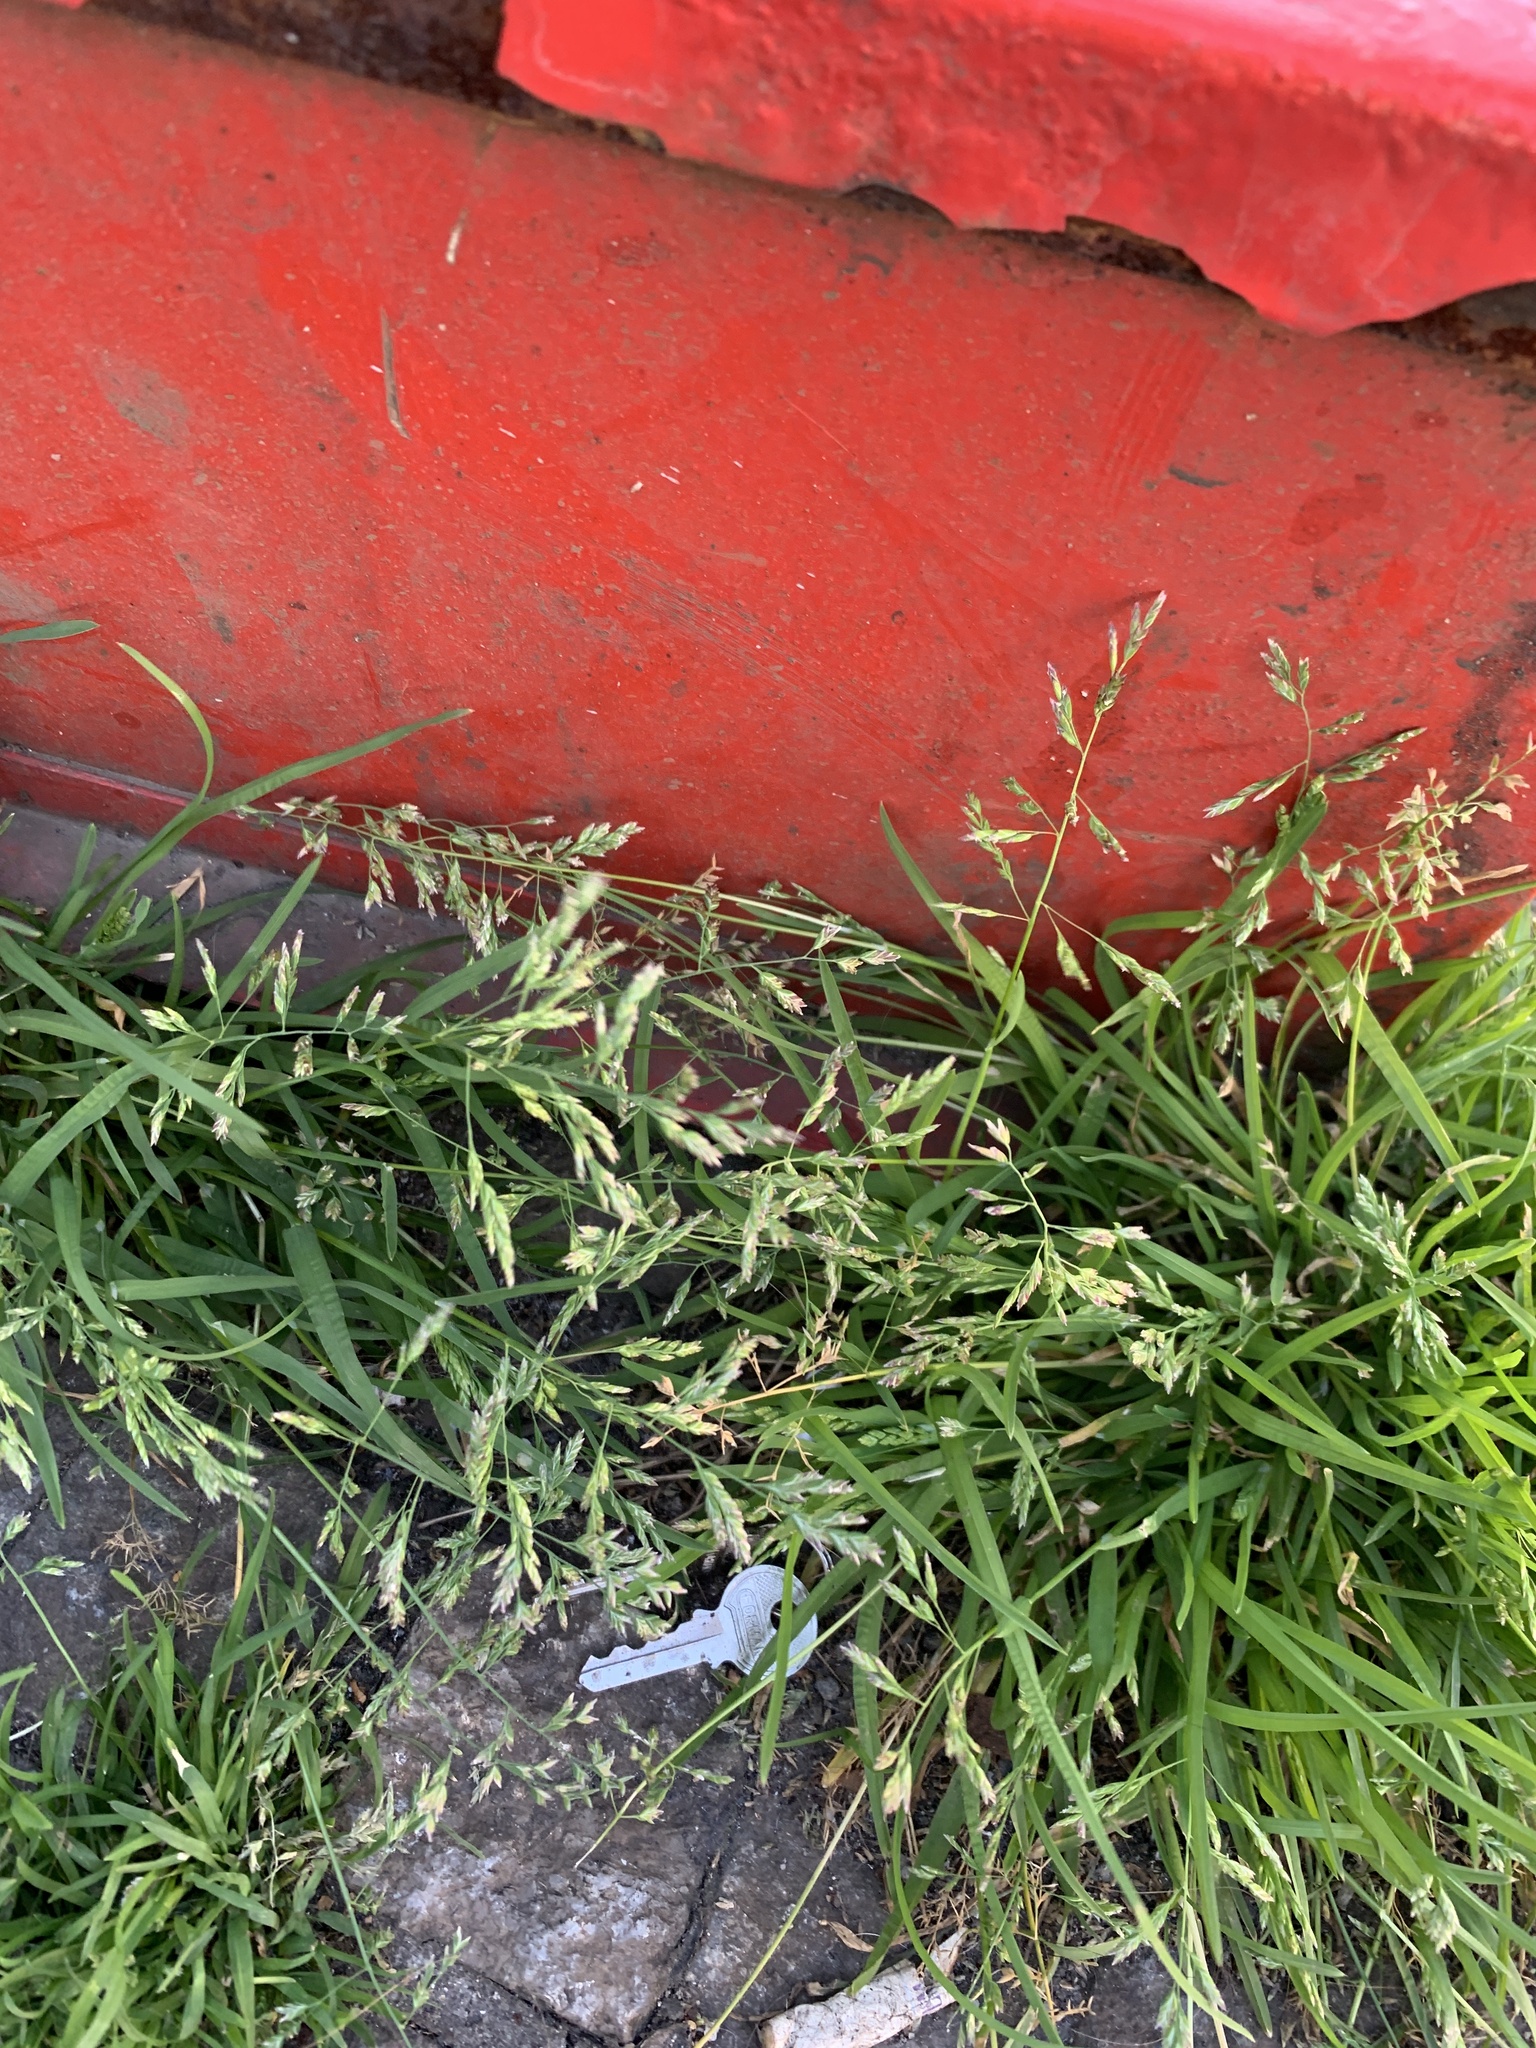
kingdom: Plantae
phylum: Tracheophyta
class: Liliopsida
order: Poales
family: Poaceae
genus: Poa
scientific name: Poa annua
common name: Annual bluegrass
